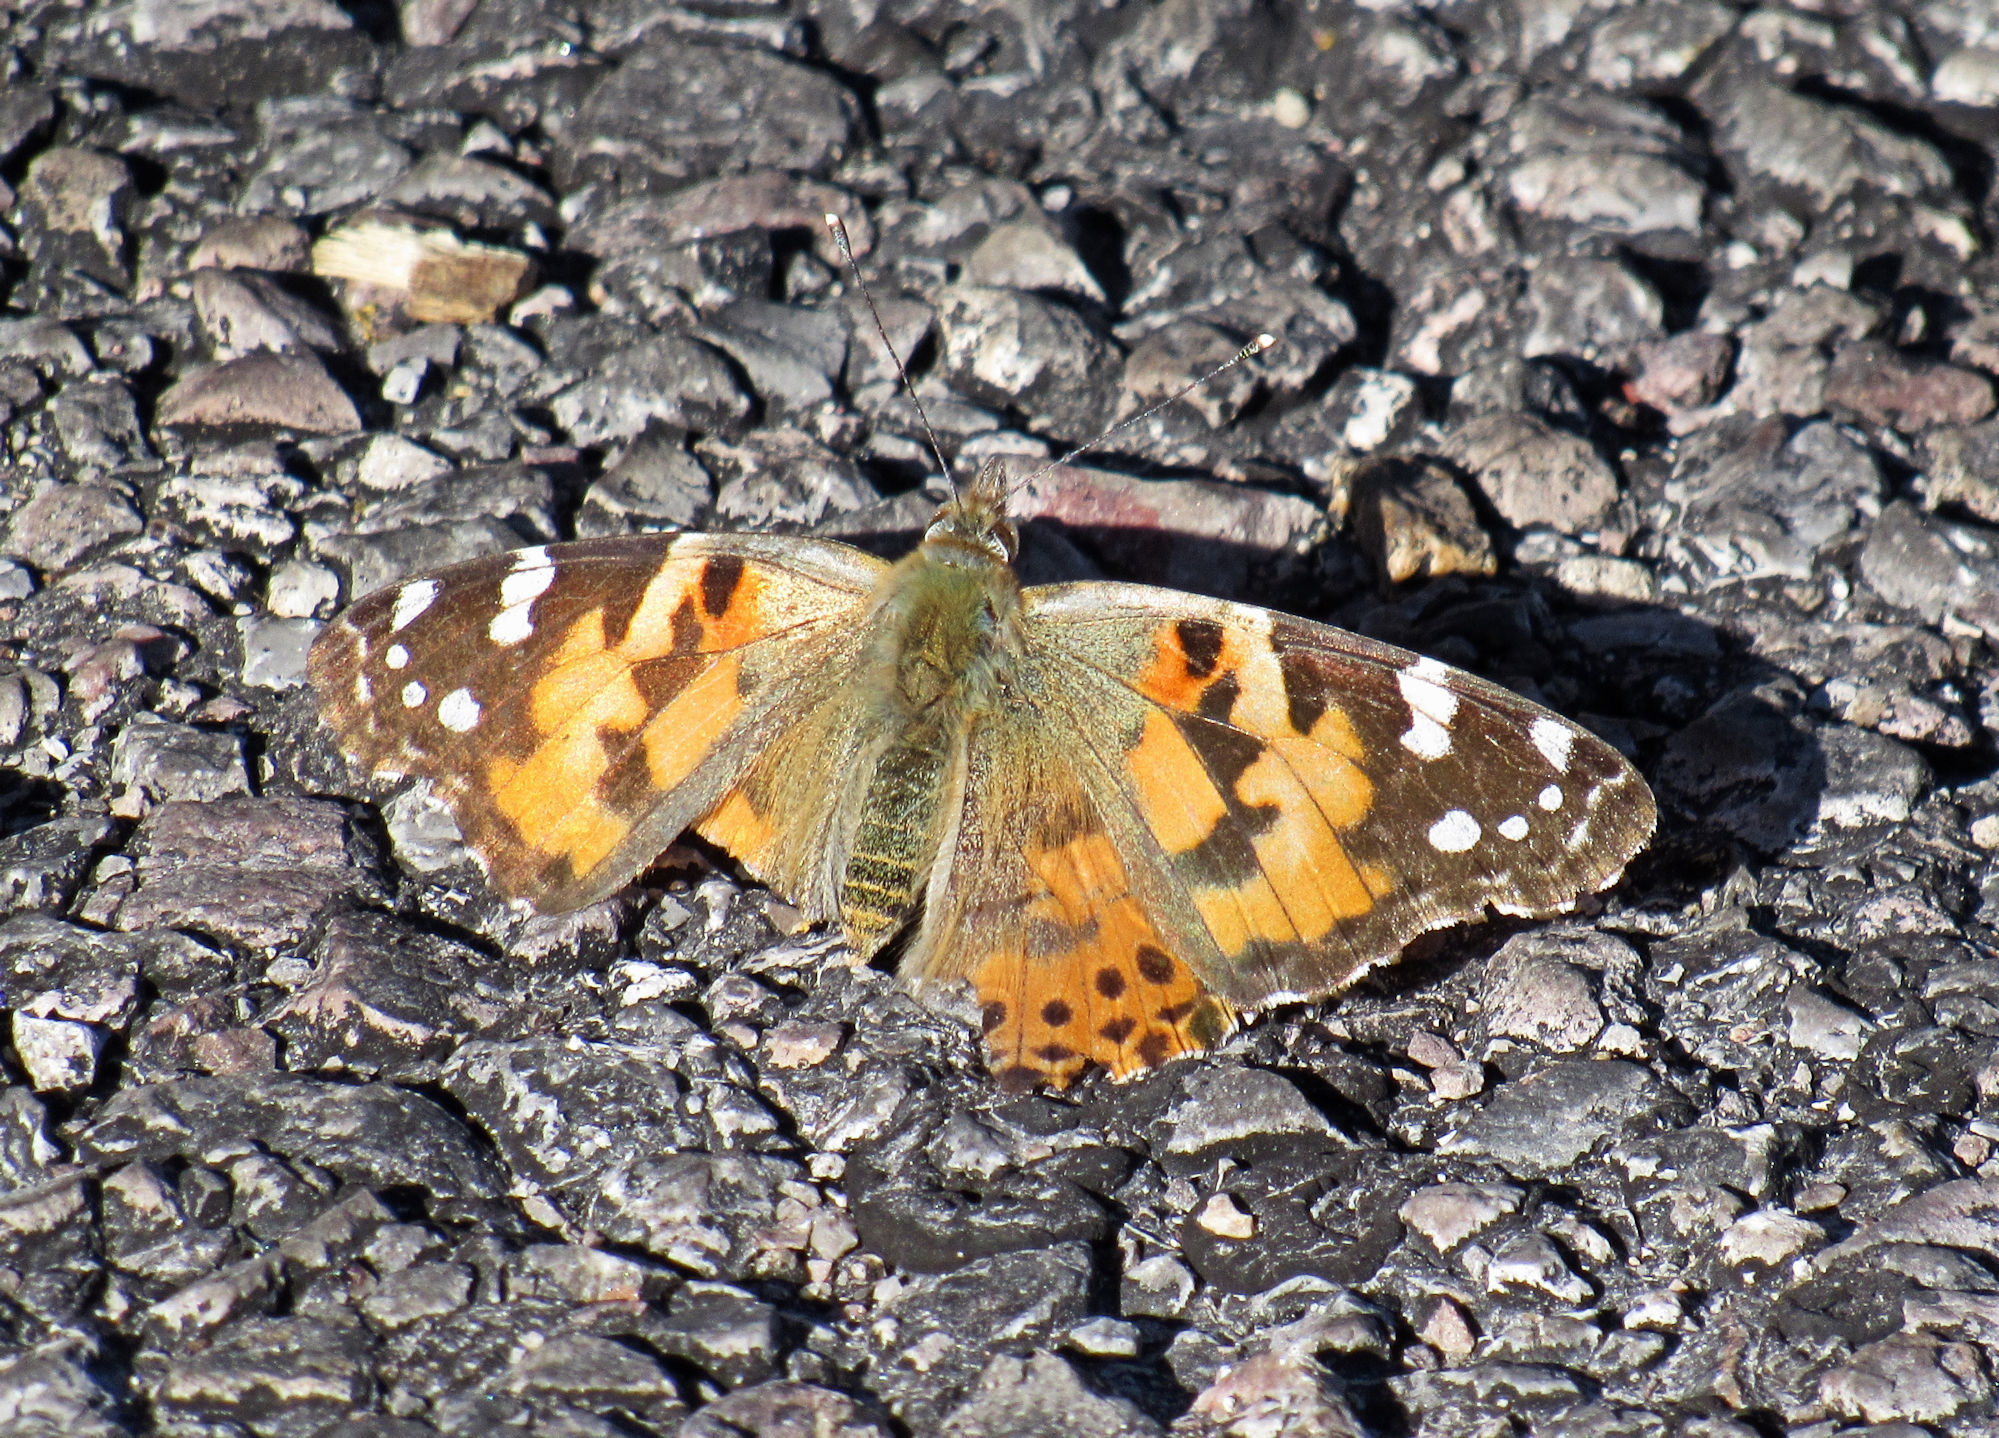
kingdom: Animalia
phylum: Arthropoda
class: Insecta
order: Lepidoptera
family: Nymphalidae
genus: Vanessa
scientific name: Vanessa cardui
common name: Painted lady
